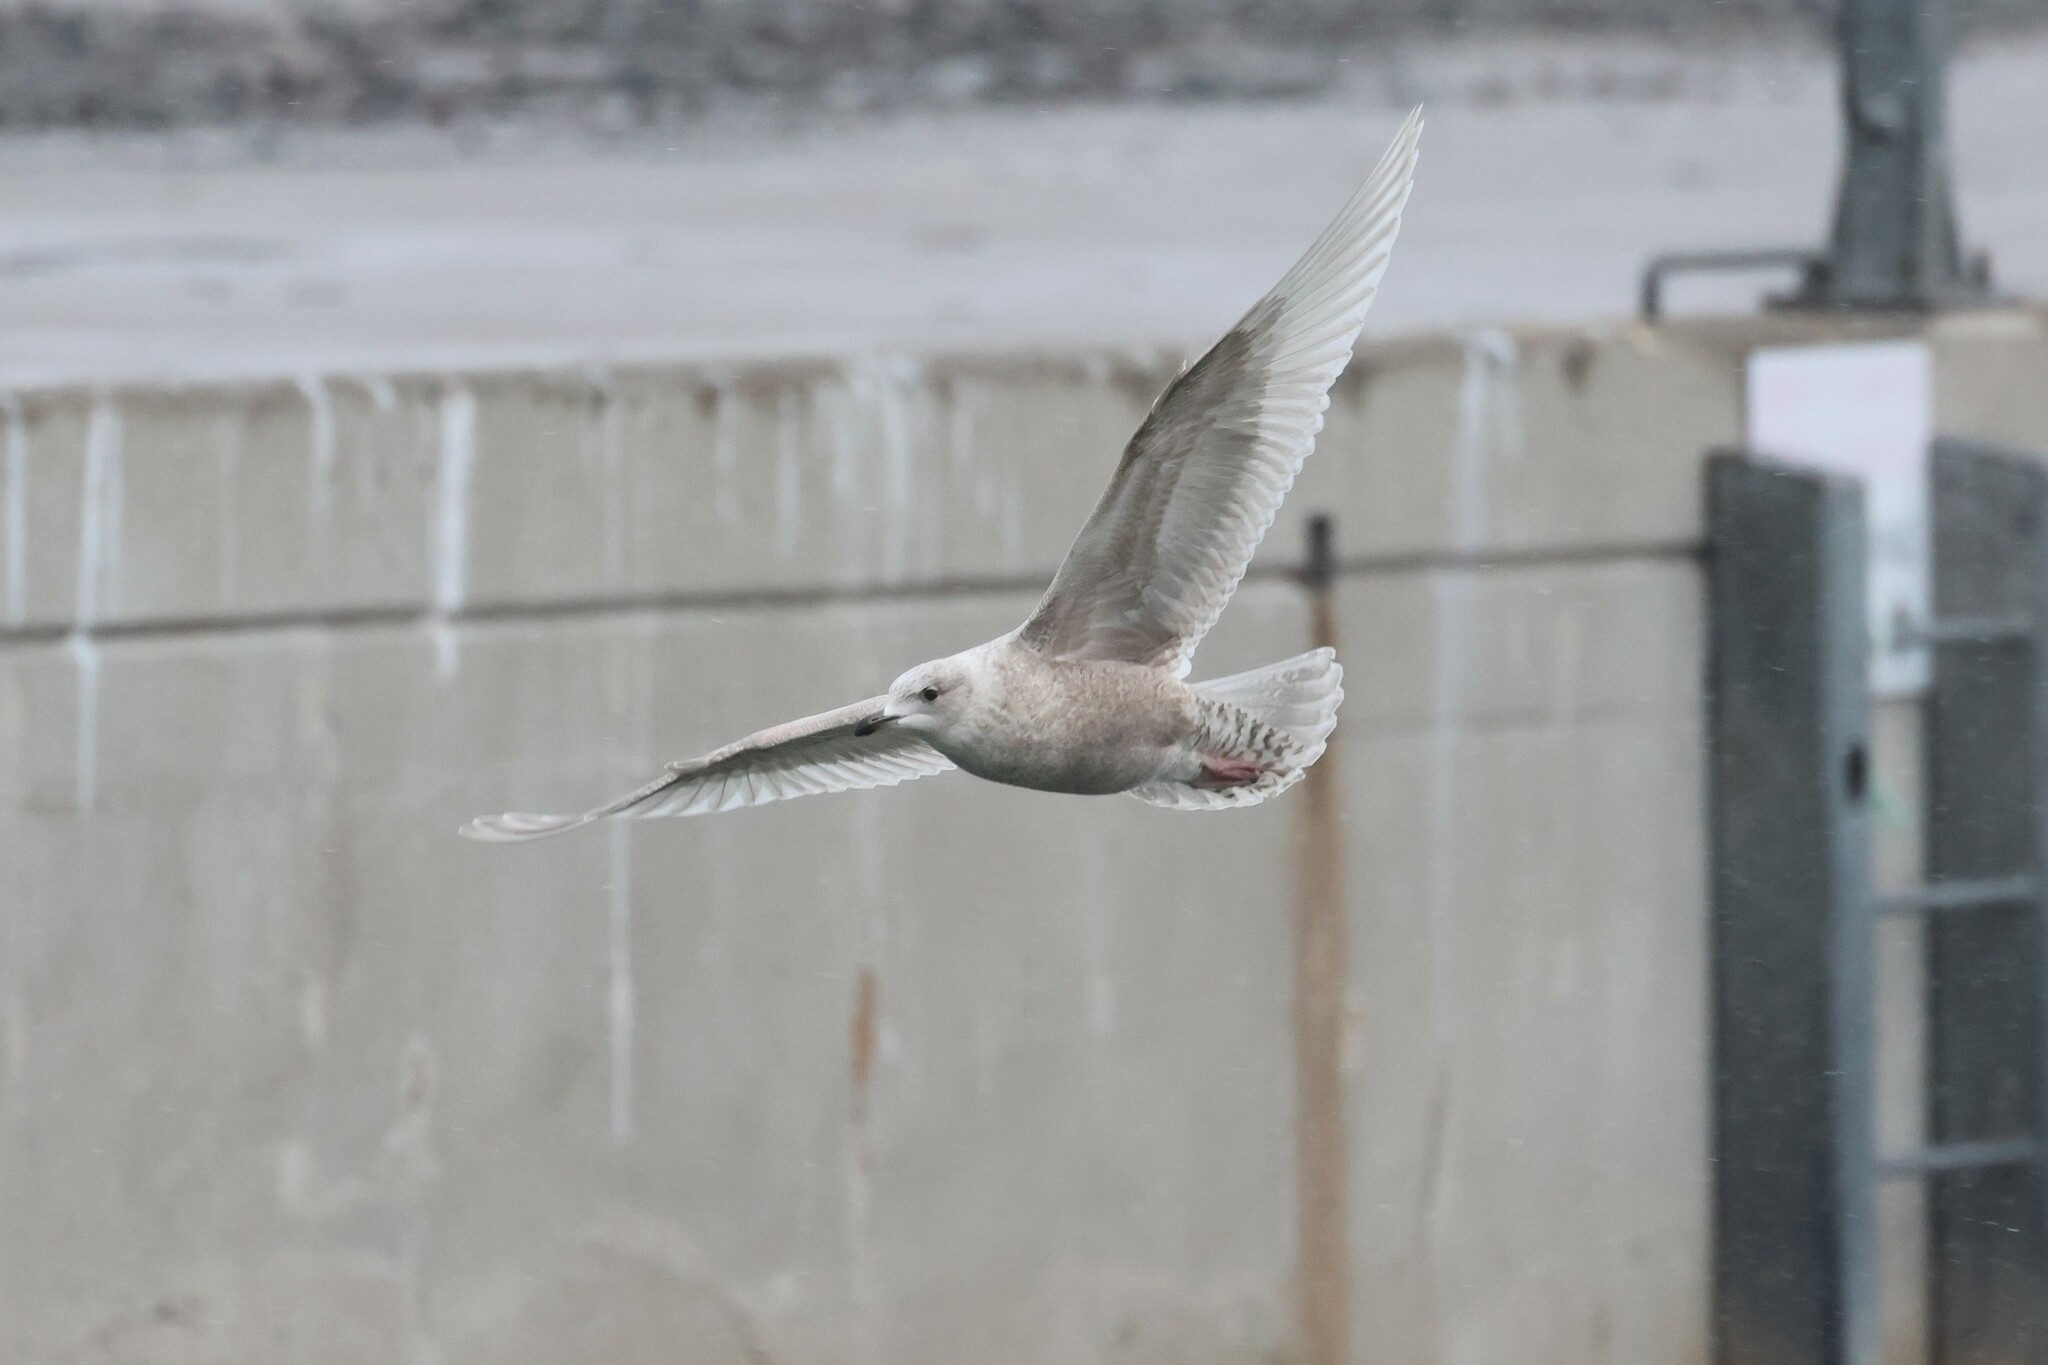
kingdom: Animalia
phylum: Chordata
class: Aves
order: Charadriiformes
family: Laridae
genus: Larus
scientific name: Larus glaucoides
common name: Iceland gull
